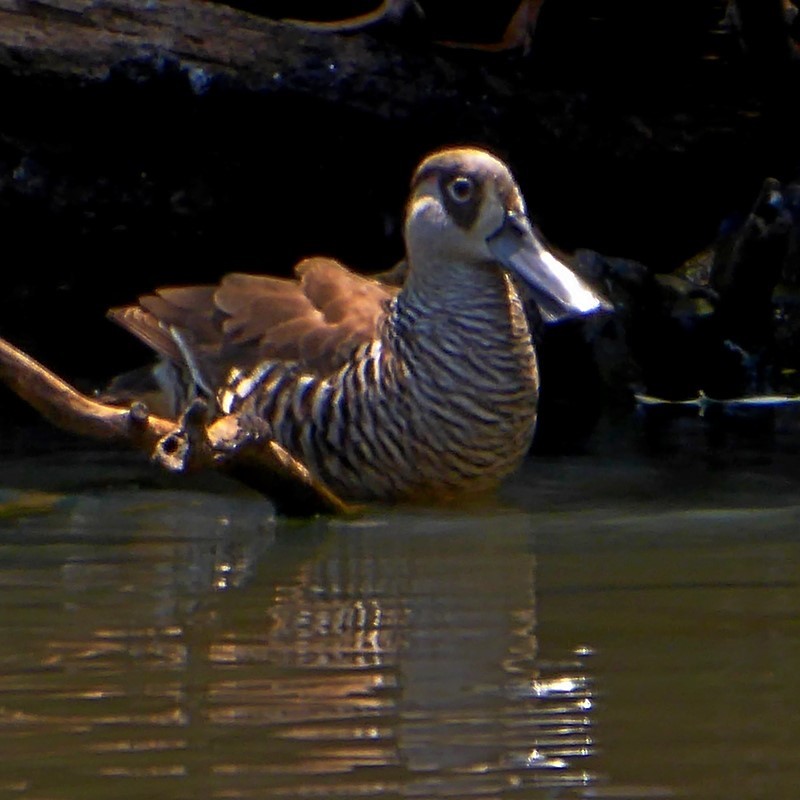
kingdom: Animalia
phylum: Chordata
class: Aves
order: Anseriformes
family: Anatidae
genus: Malacorhynchus
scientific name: Malacorhynchus membranaceus
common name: Pink-eared duck
